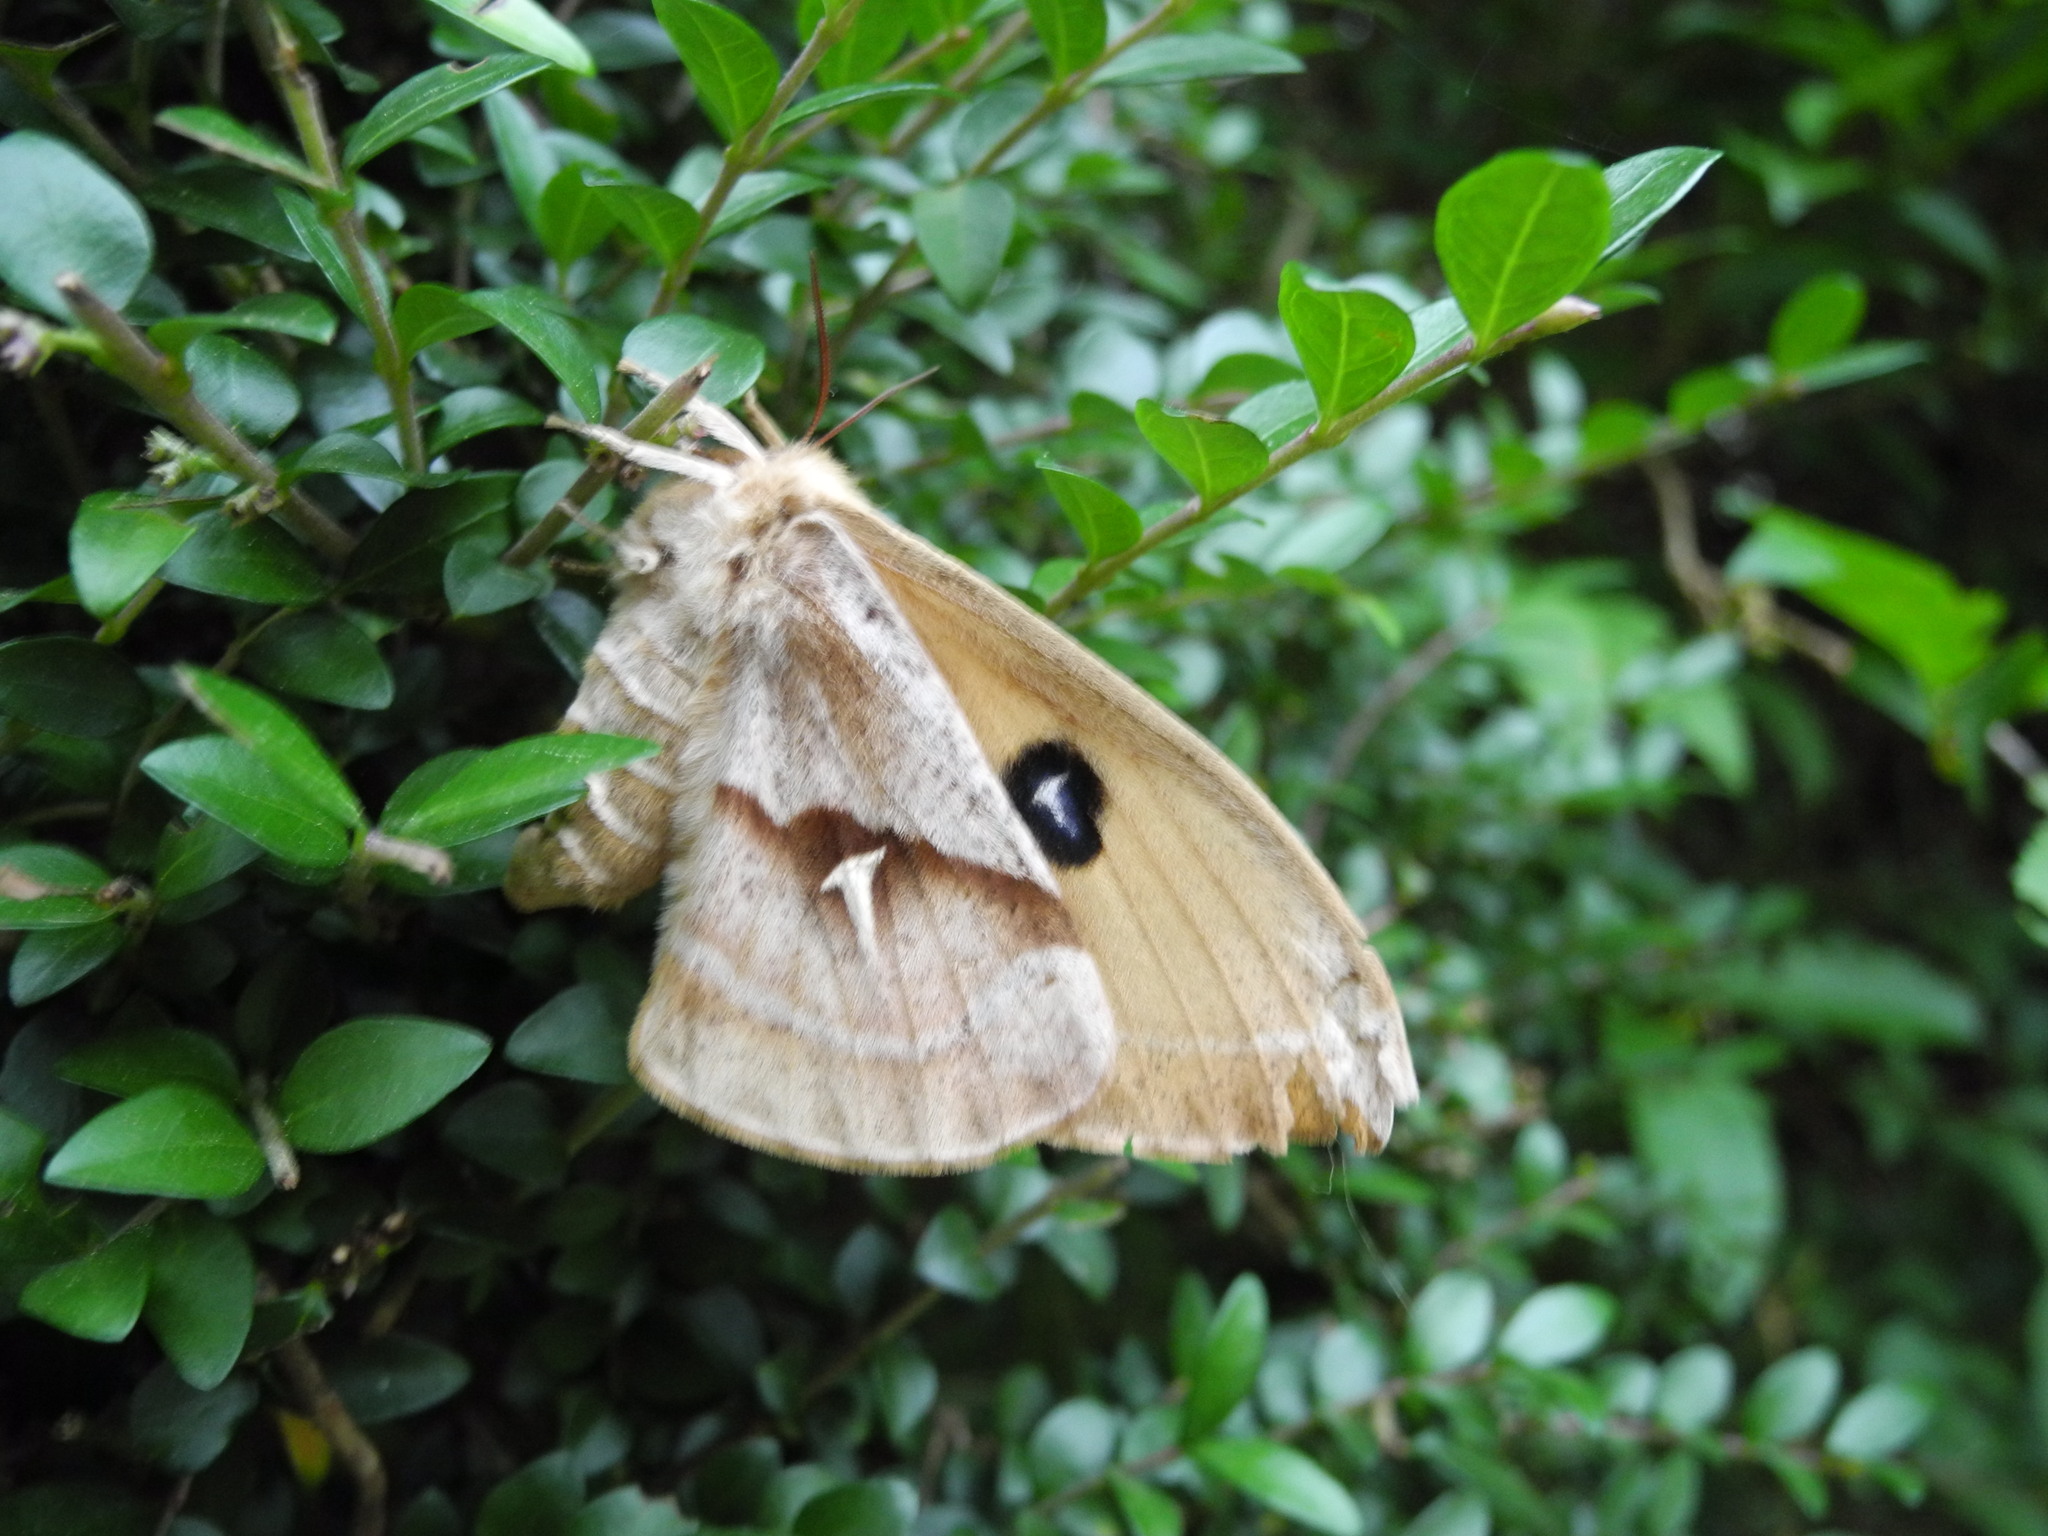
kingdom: Animalia
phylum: Arthropoda
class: Insecta
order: Lepidoptera
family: Saturniidae
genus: Aglia
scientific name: Aglia tau
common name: Tau emperor
